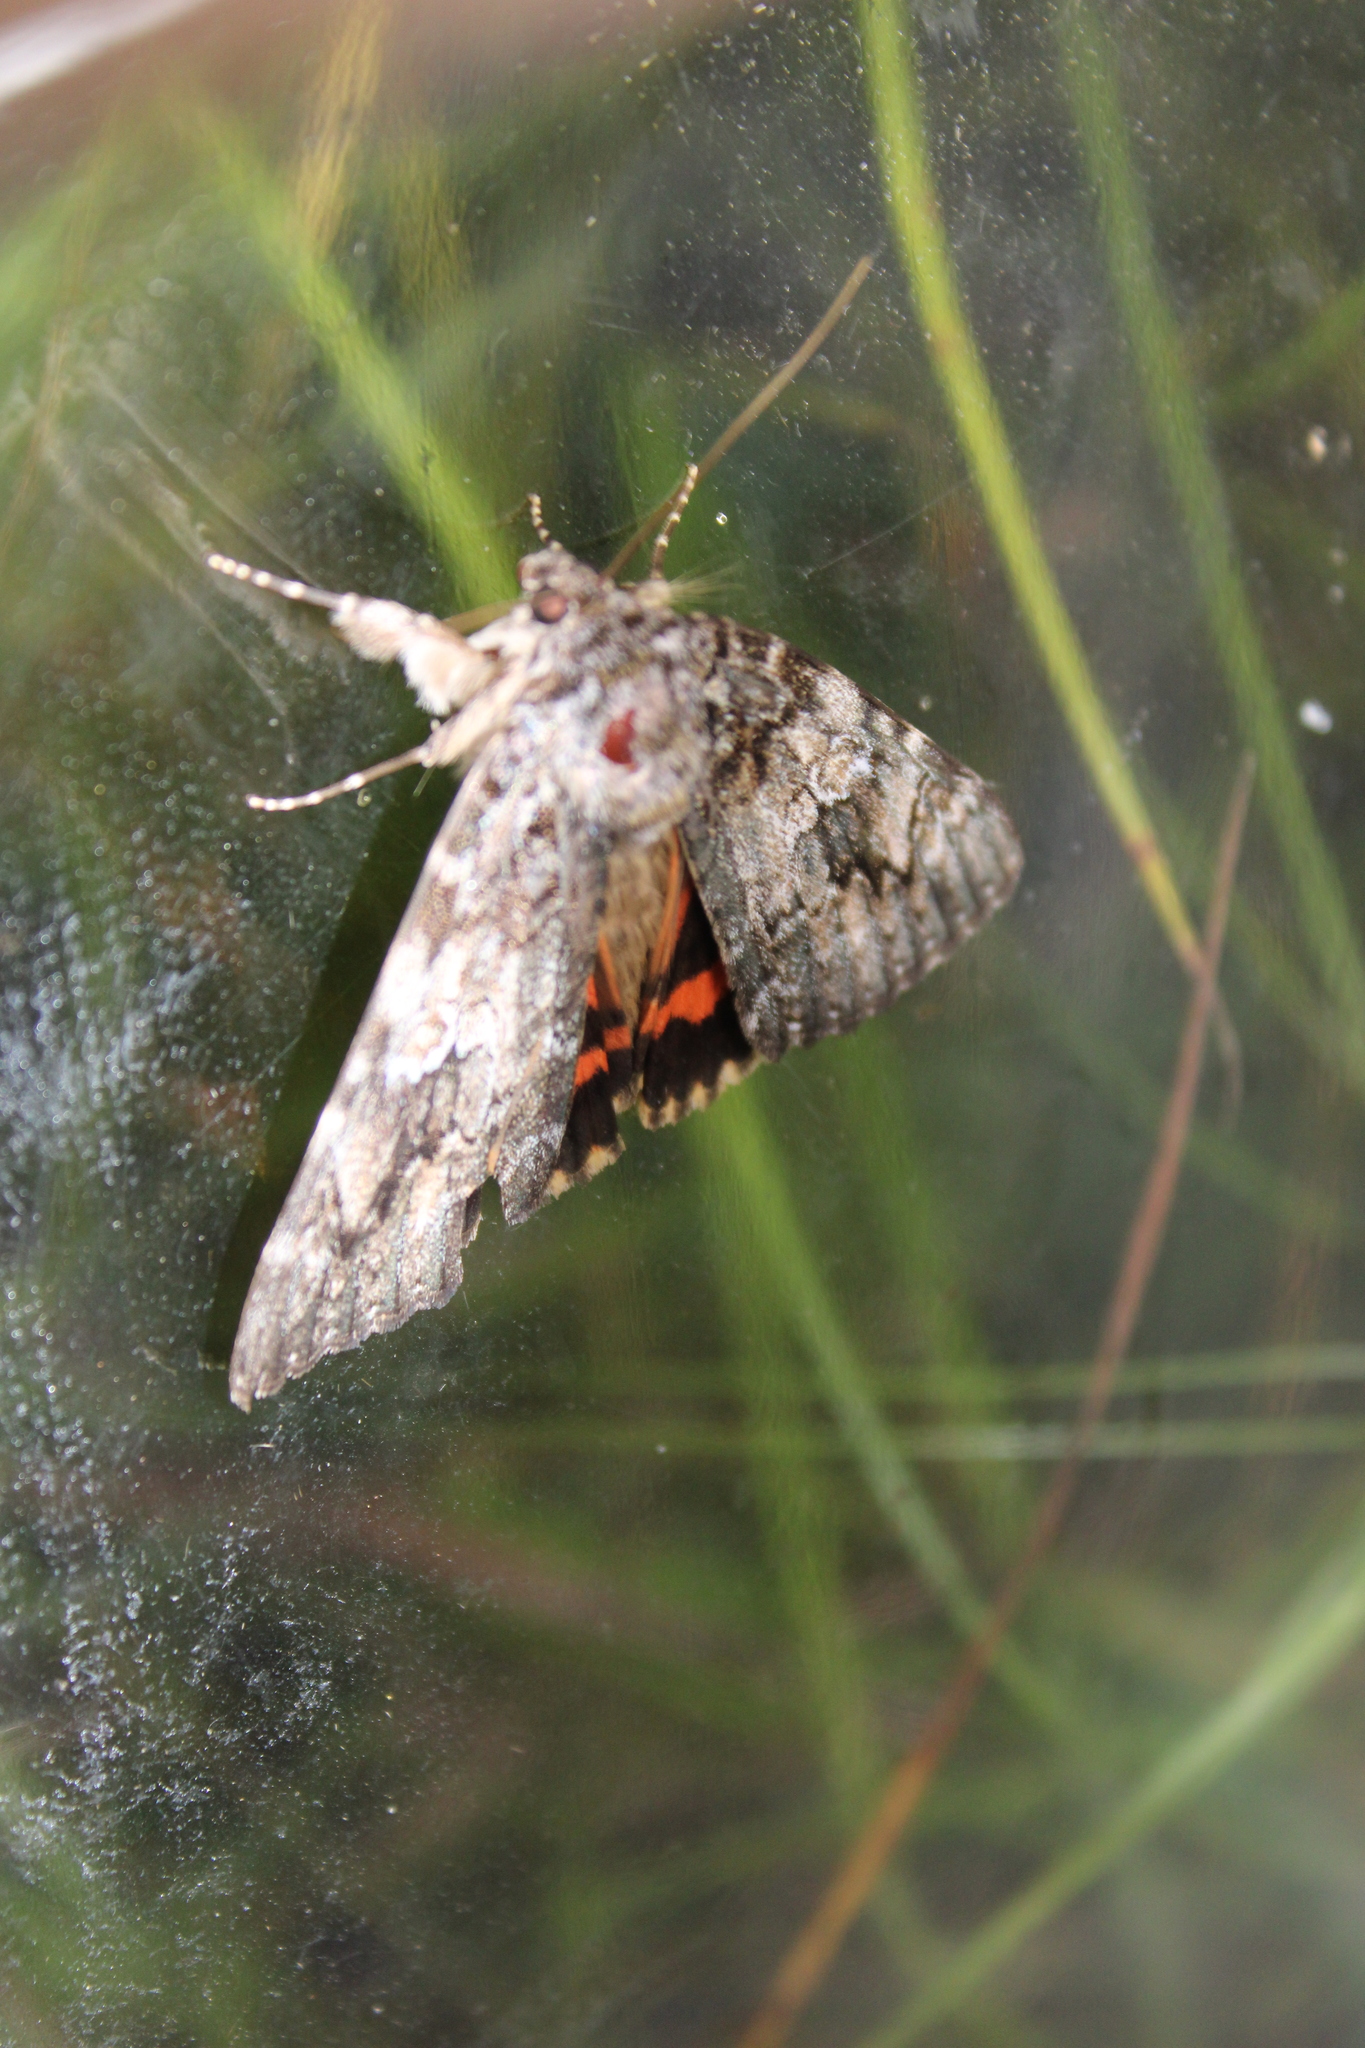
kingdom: Animalia
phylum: Arthropoda
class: Insecta
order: Lepidoptera
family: Erebidae
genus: Catocala
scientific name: Catocala ilia
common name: Ilia underwing
